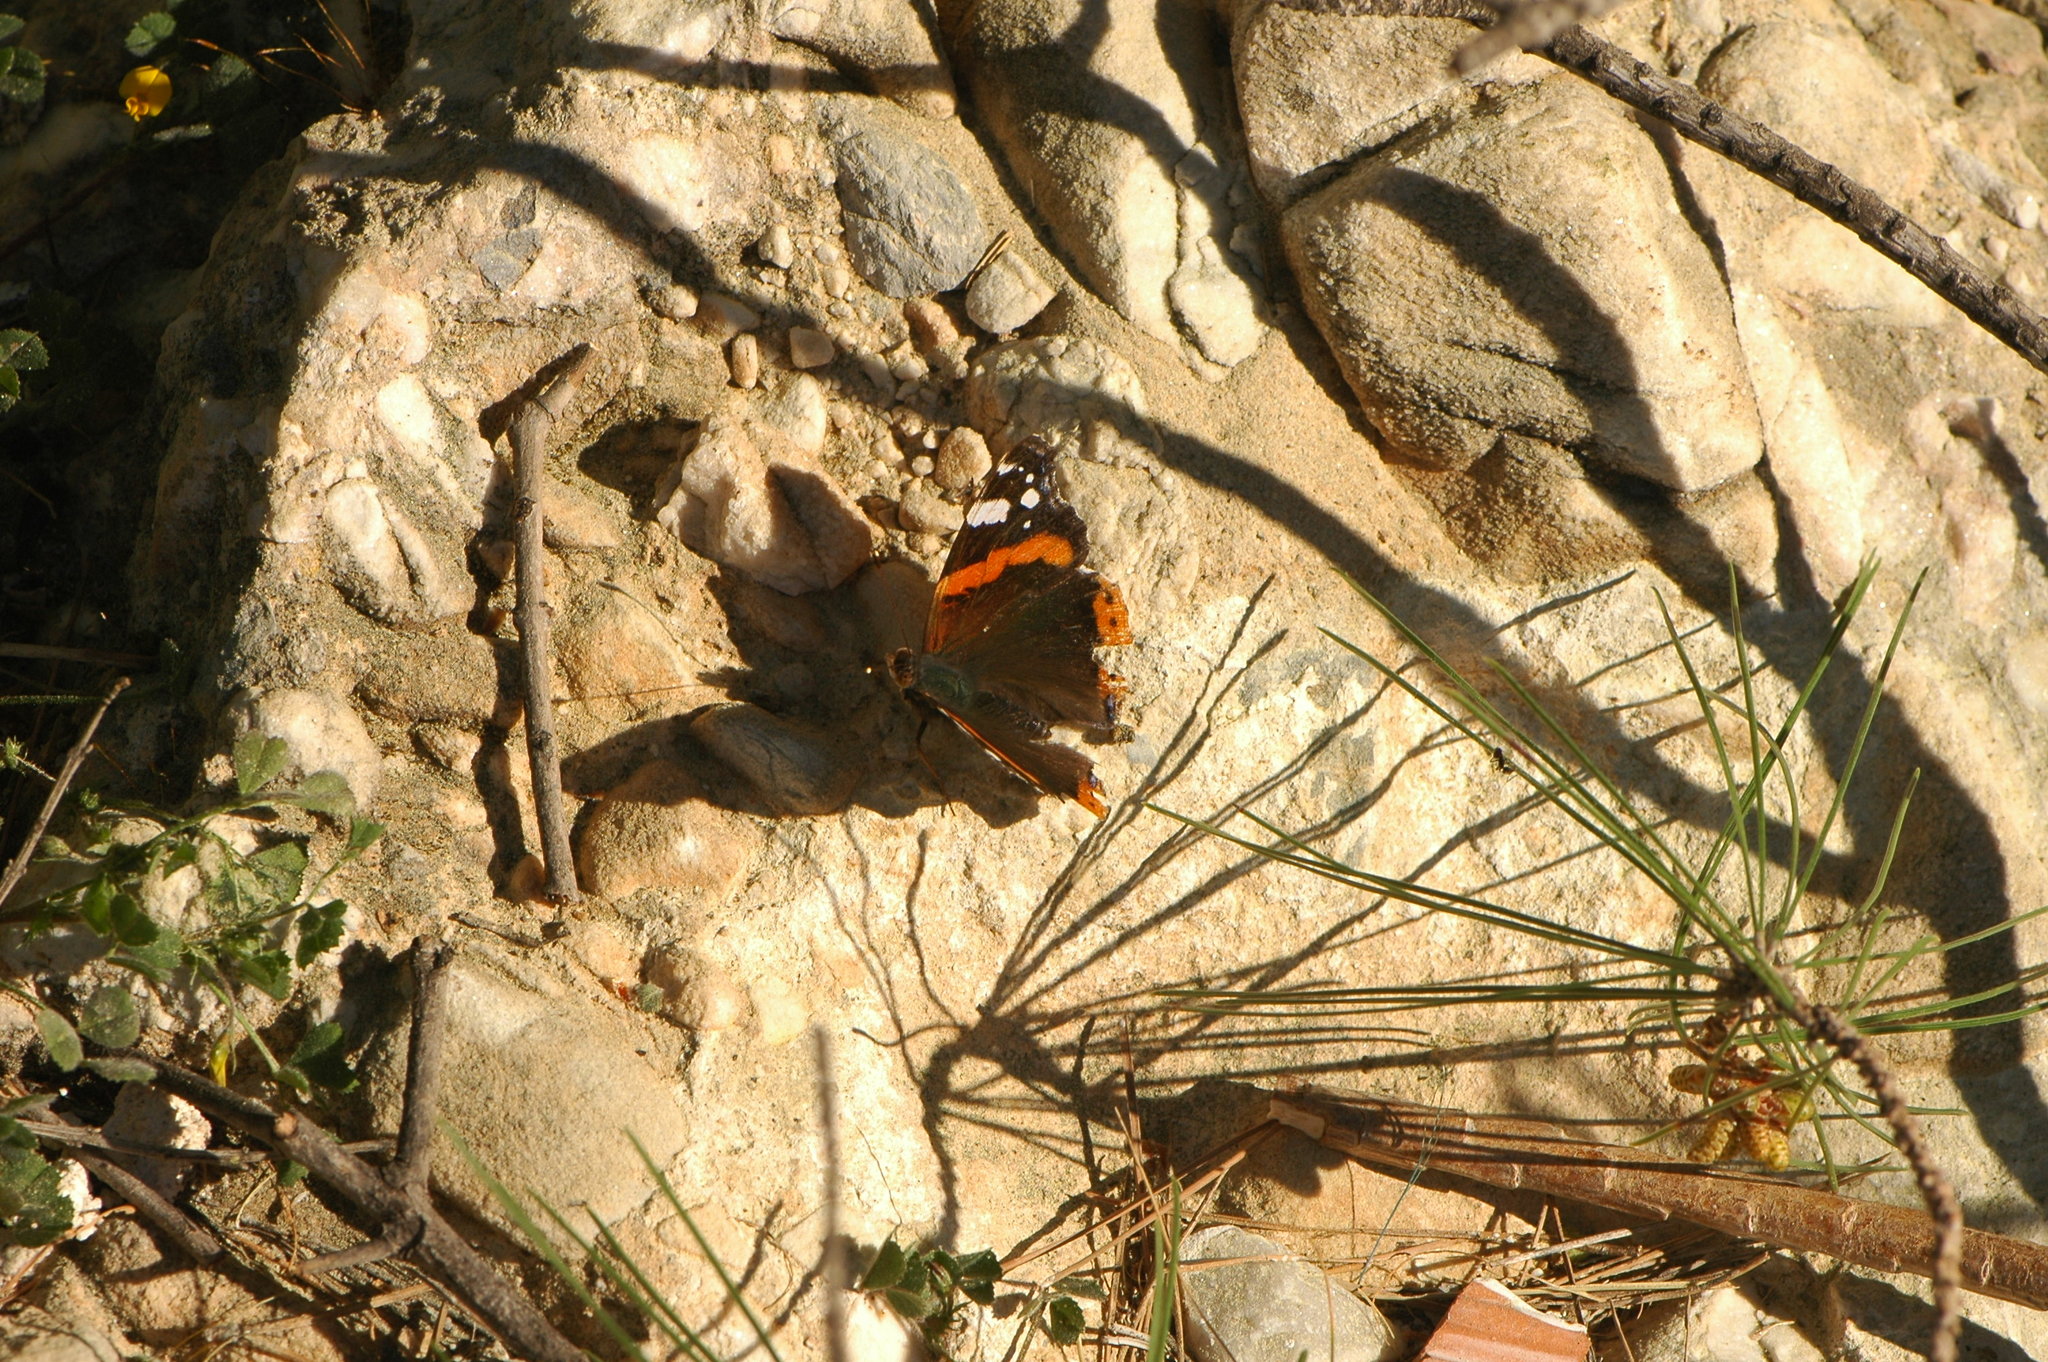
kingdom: Animalia
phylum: Arthropoda
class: Insecta
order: Lepidoptera
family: Nymphalidae
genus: Vanessa
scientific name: Vanessa atalanta
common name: Red admiral
